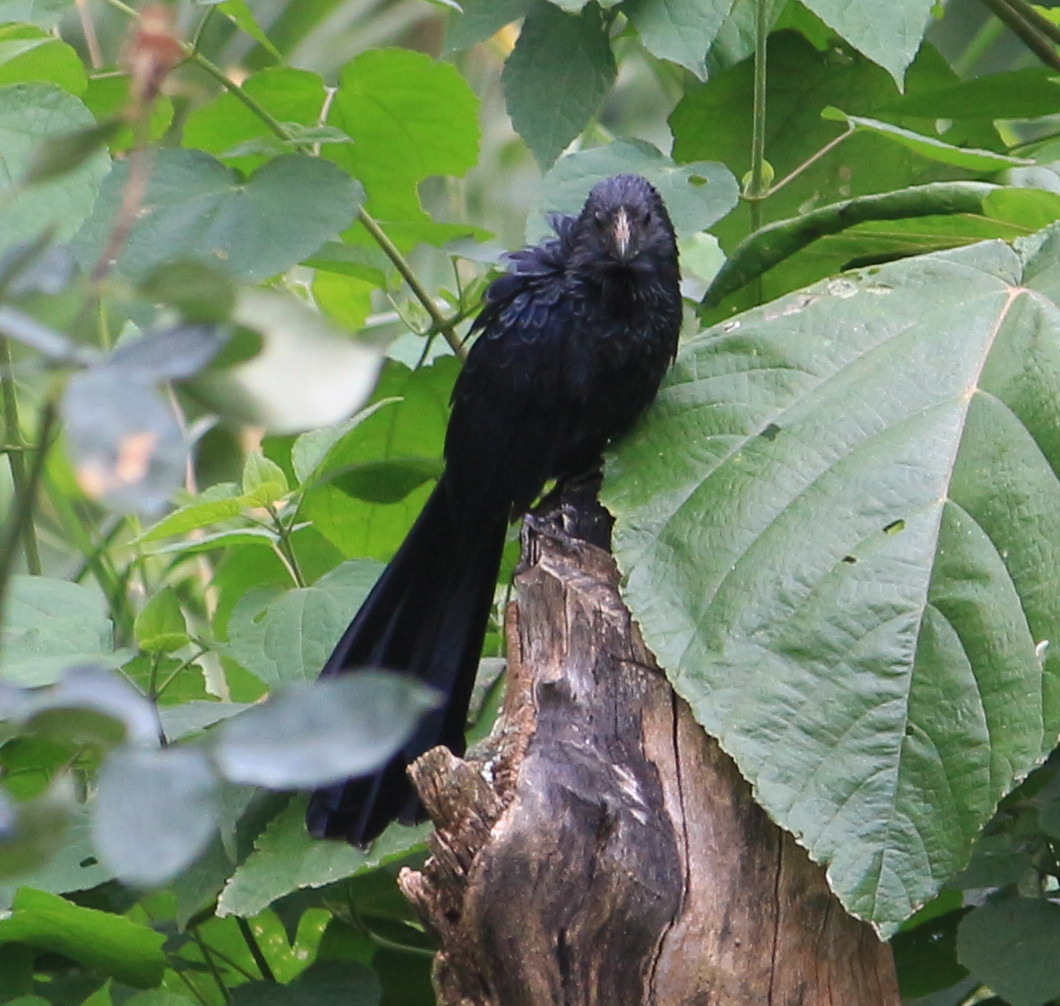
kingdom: Animalia
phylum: Chordata
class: Aves
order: Cuculiformes
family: Cuculidae
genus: Crotophaga
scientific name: Crotophaga sulcirostris
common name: Groove-billed ani
